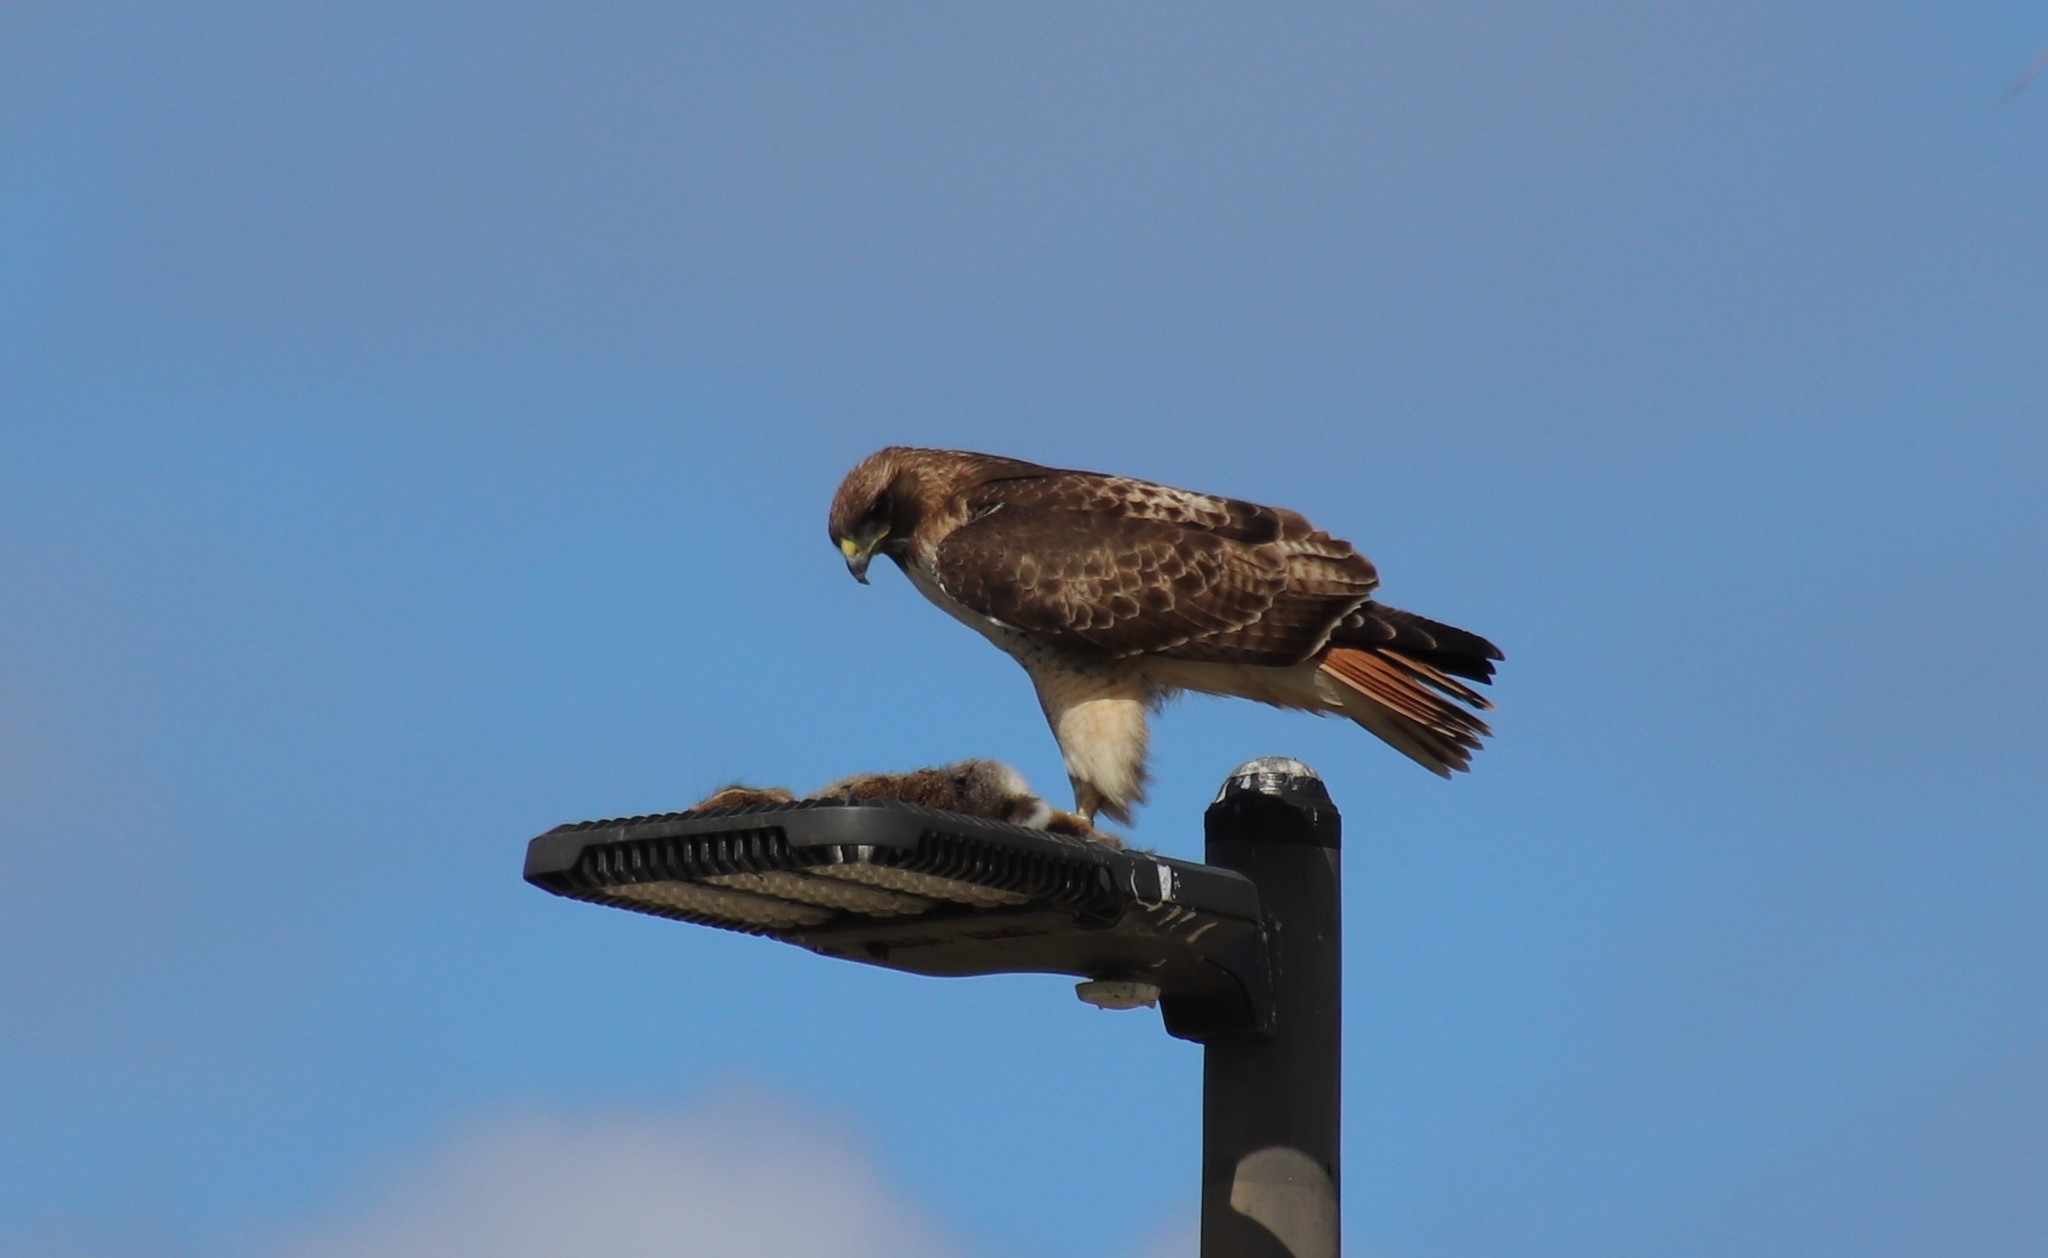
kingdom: Animalia
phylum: Chordata
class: Aves
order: Accipitriformes
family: Accipitridae
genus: Buteo
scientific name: Buteo jamaicensis
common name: Red-tailed hawk
